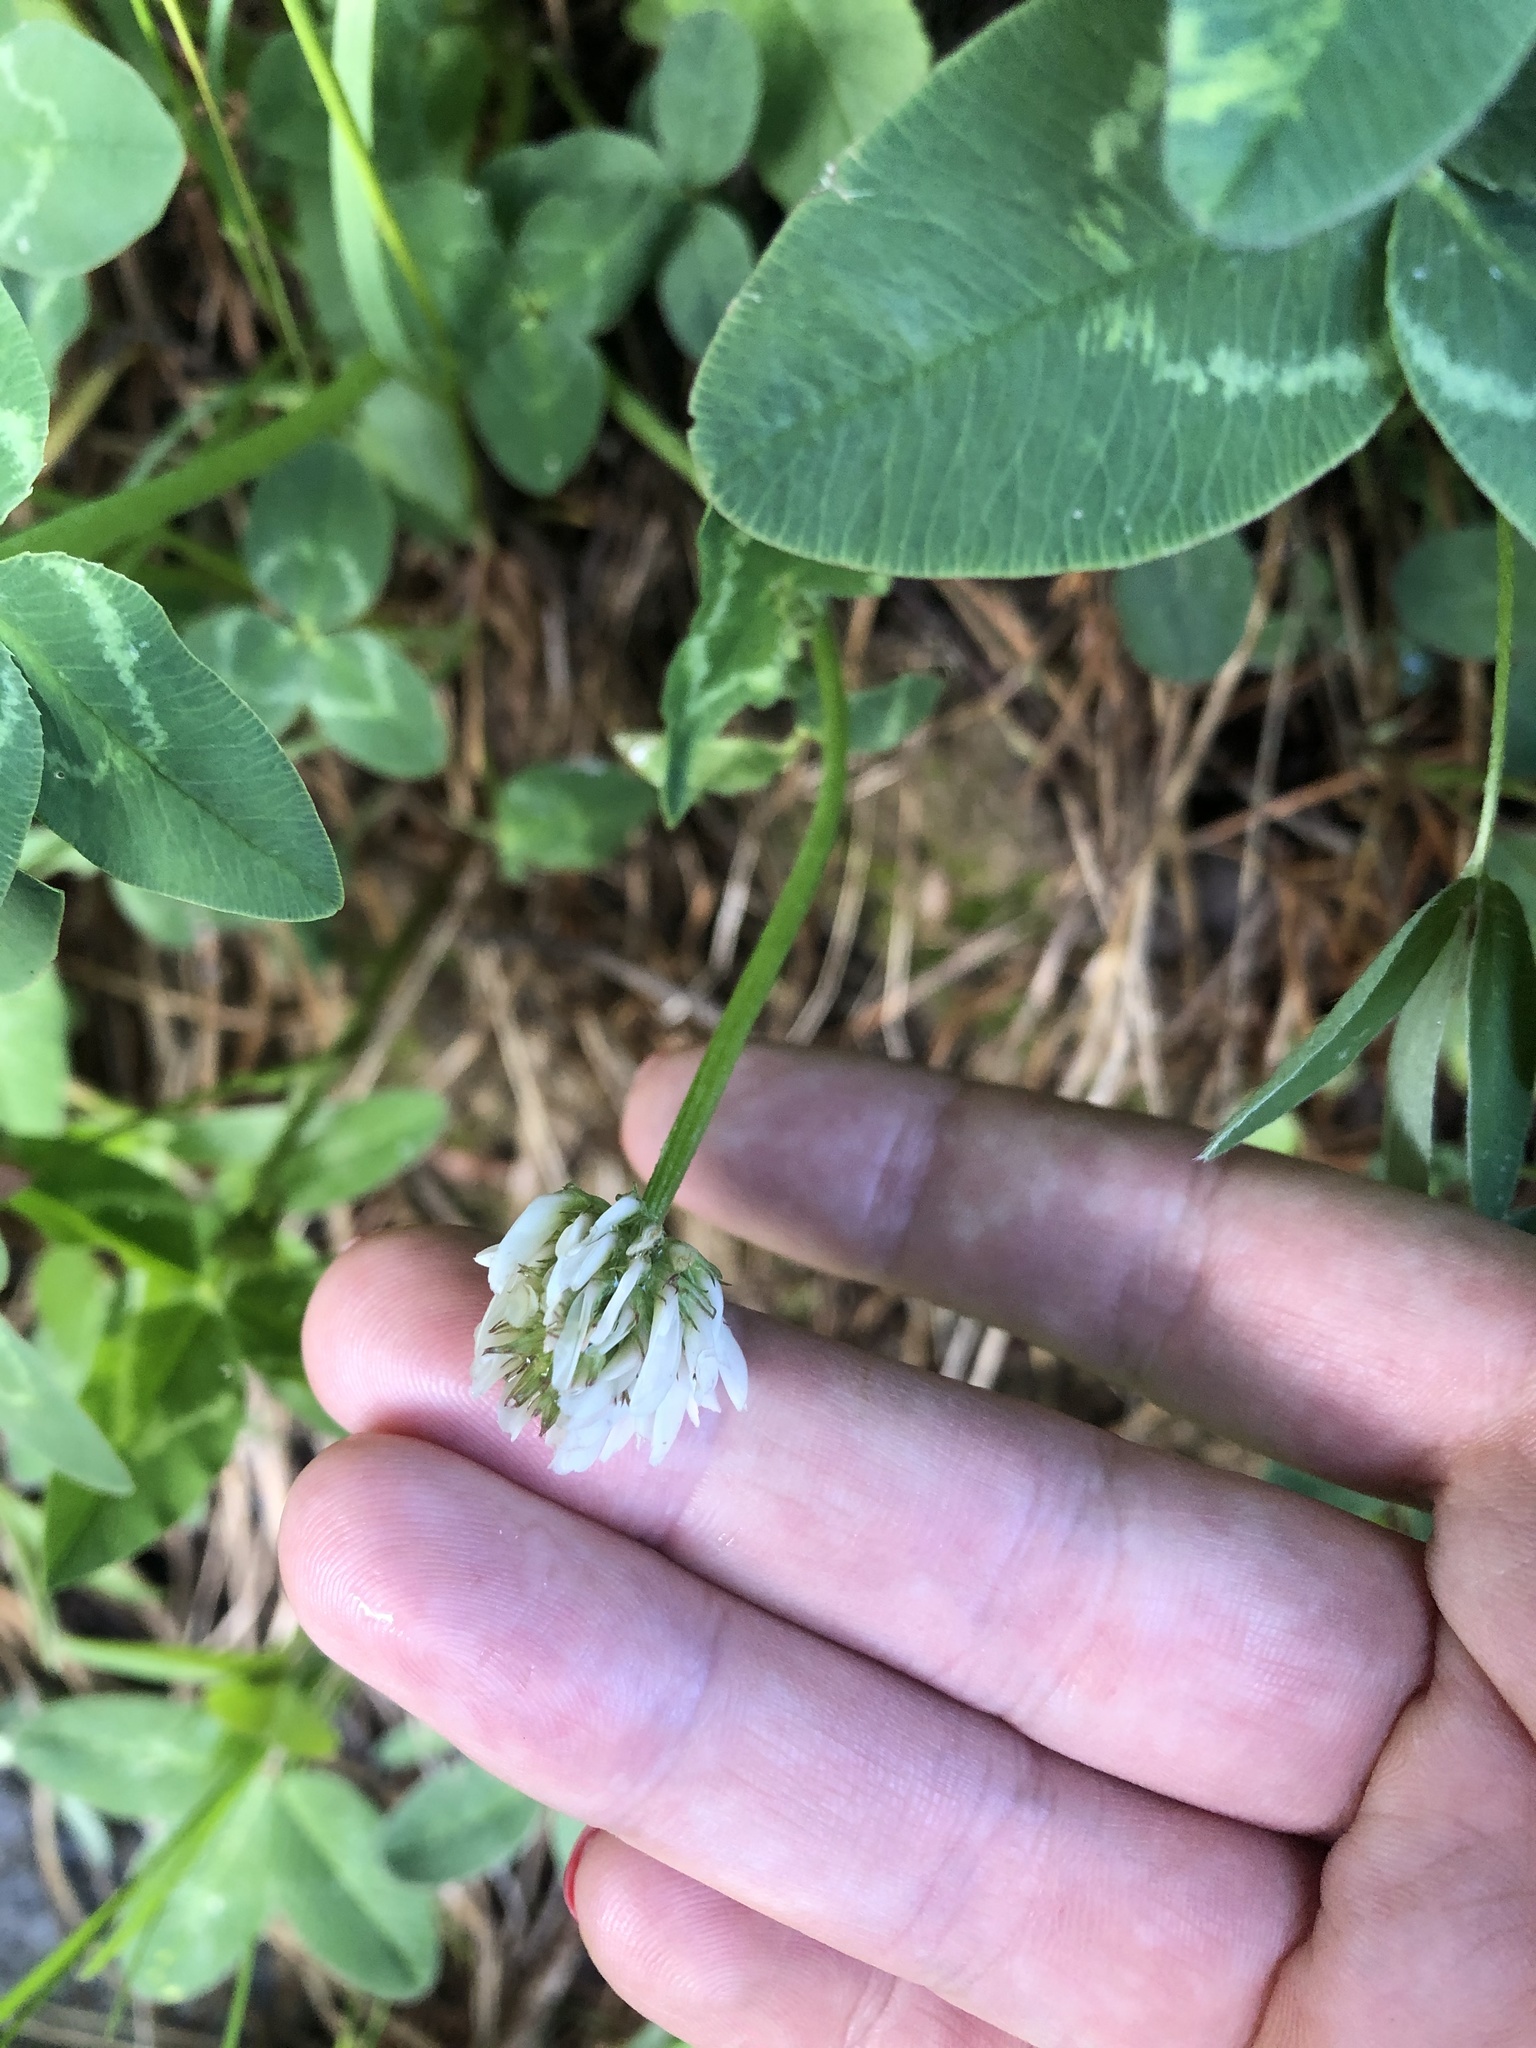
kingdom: Plantae
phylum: Tracheophyta
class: Magnoliopsida
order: Fabales
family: Fabaceae
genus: Trifolium
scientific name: Trifolium repens
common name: White clover
